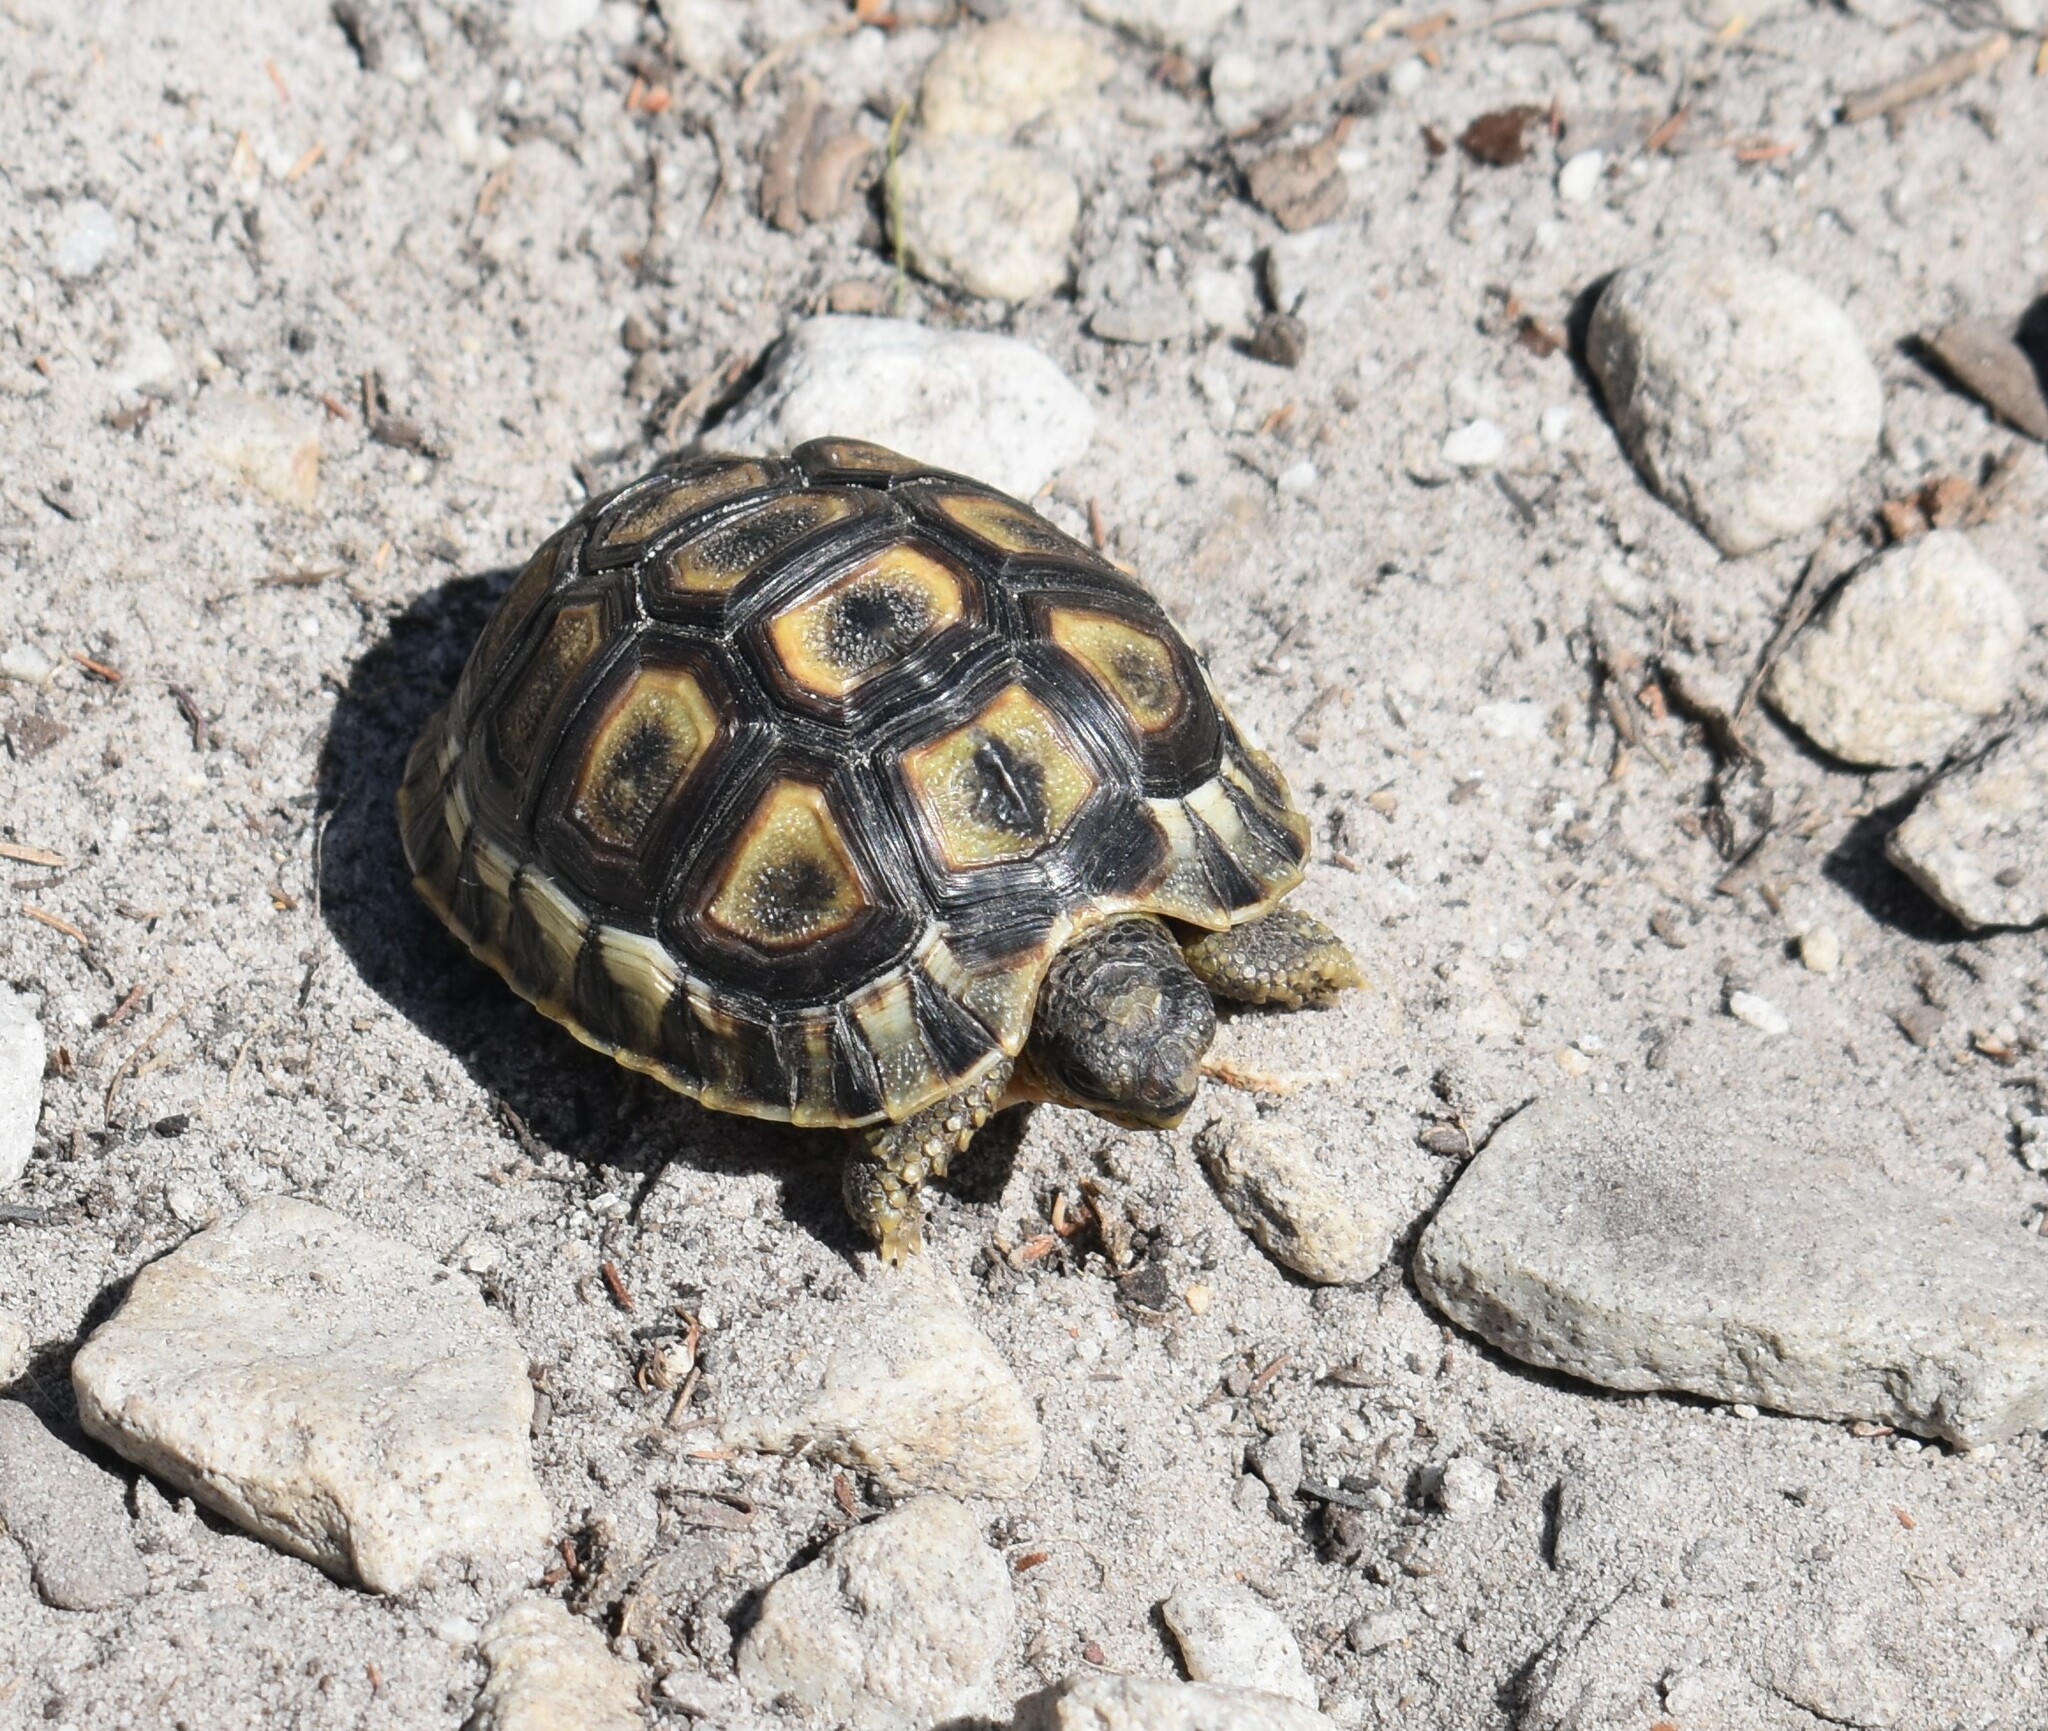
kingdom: Animalia
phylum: Chordata
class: Testudines
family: Testudinidae
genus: Chersina
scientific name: Chersina angulata
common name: South african bowsprit tortoise
